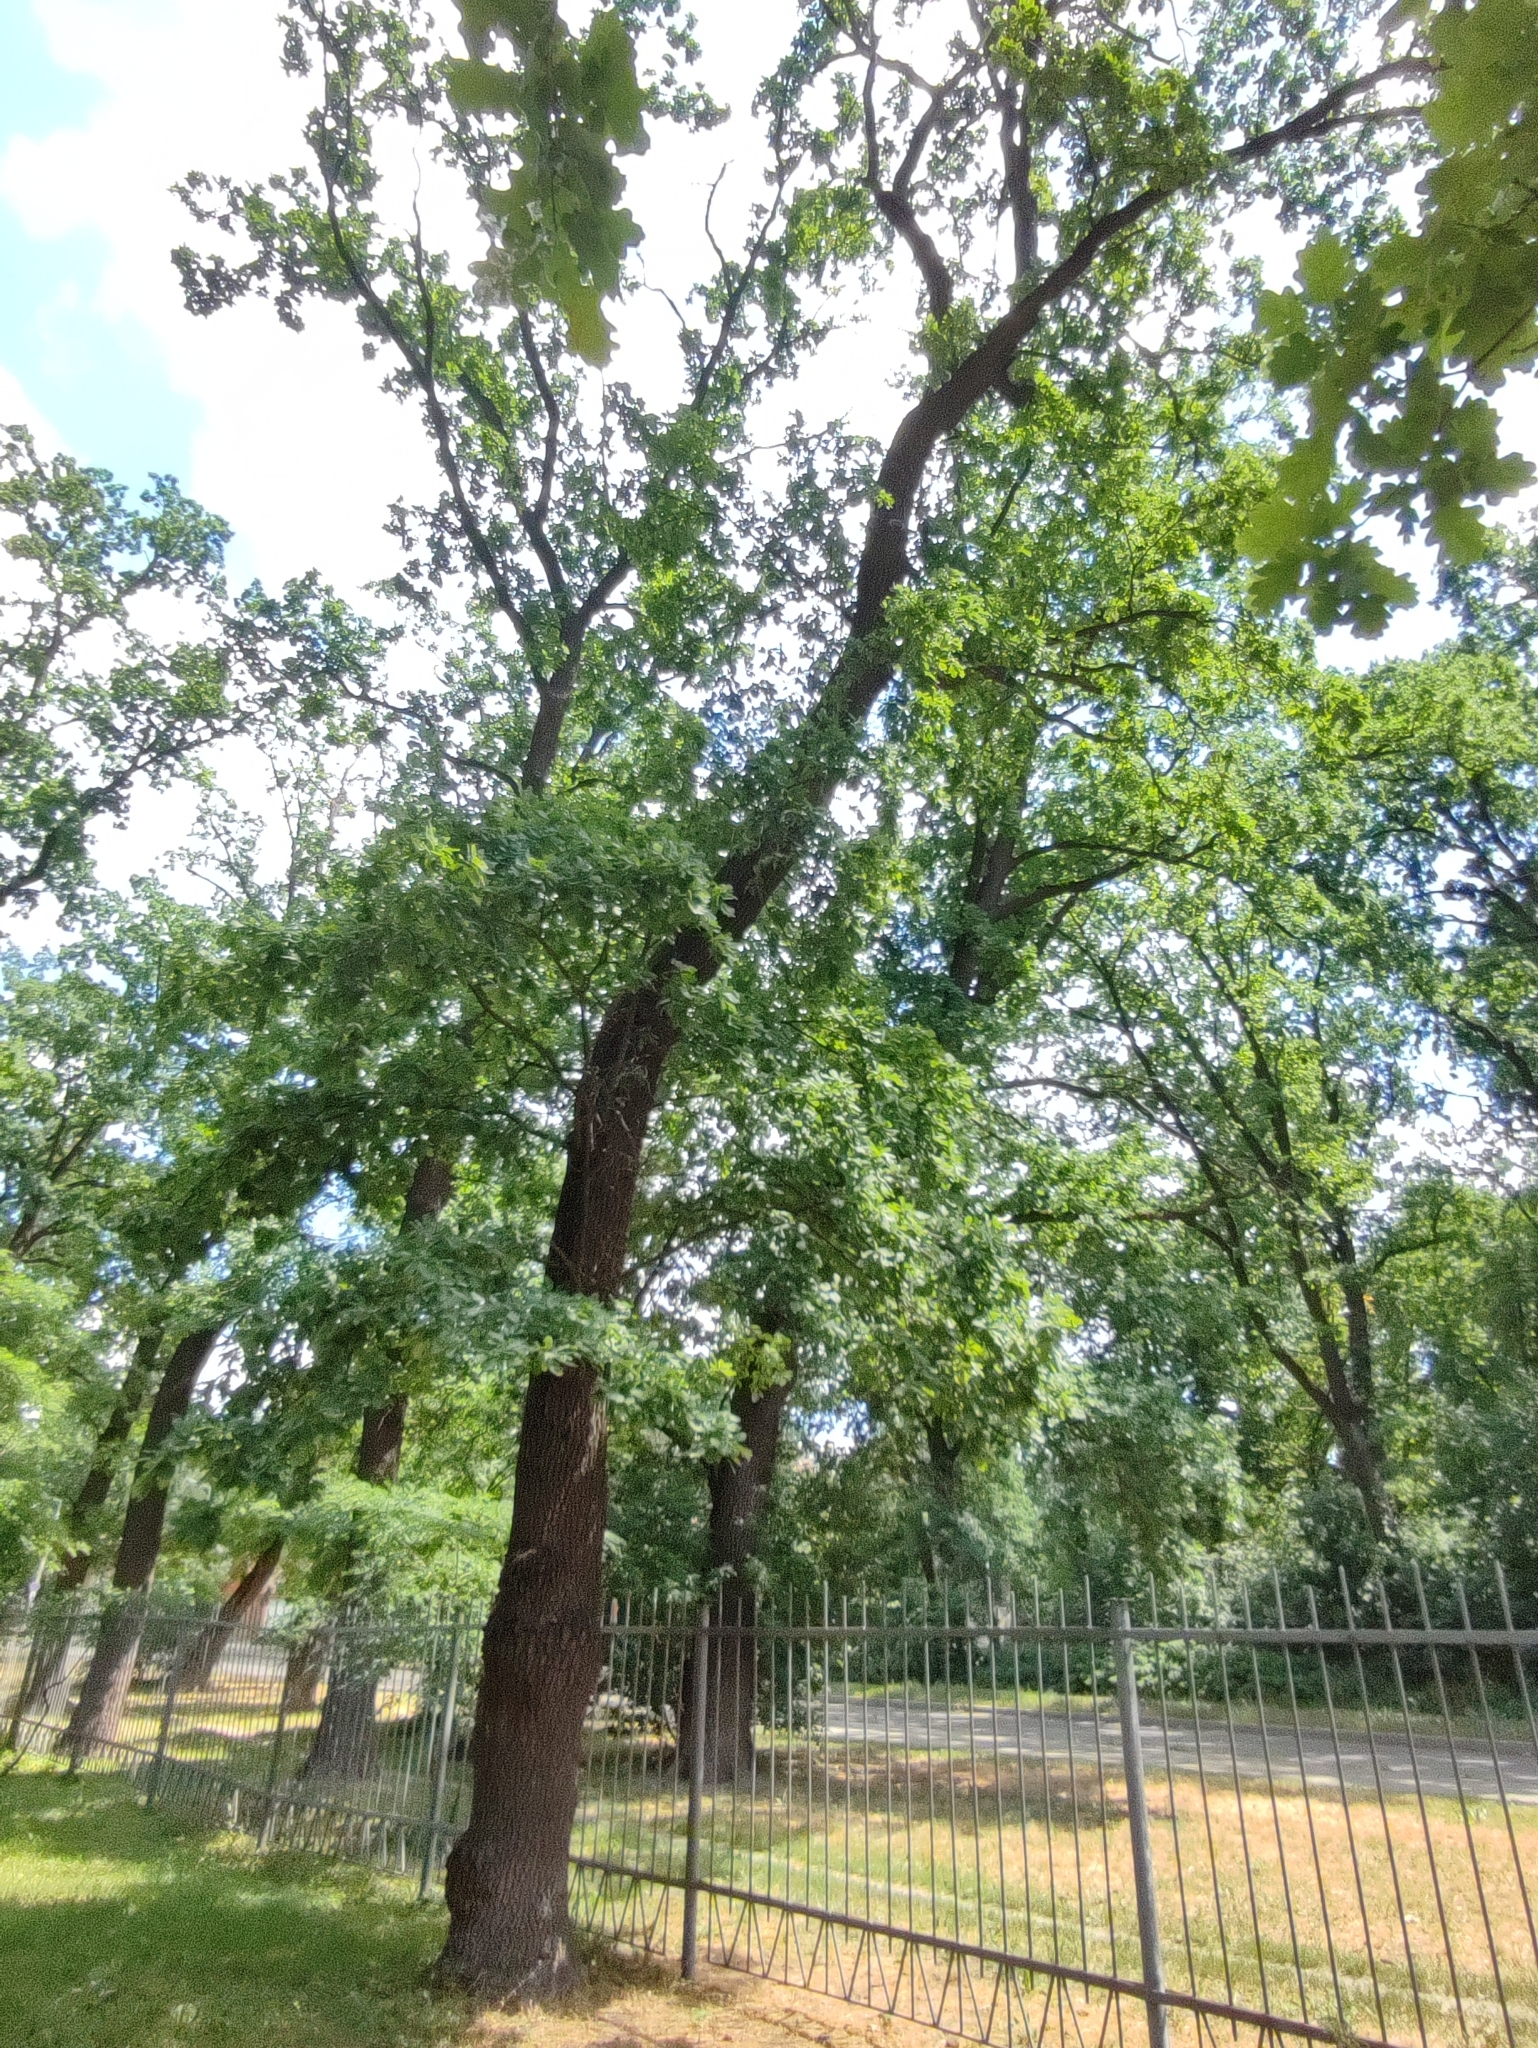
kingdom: Plantae
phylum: Tracheophyta
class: Magnoliopsida
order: Fagales
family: Fagaceae
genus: Quercus
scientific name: Quercus robur
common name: Pedunculate oak
